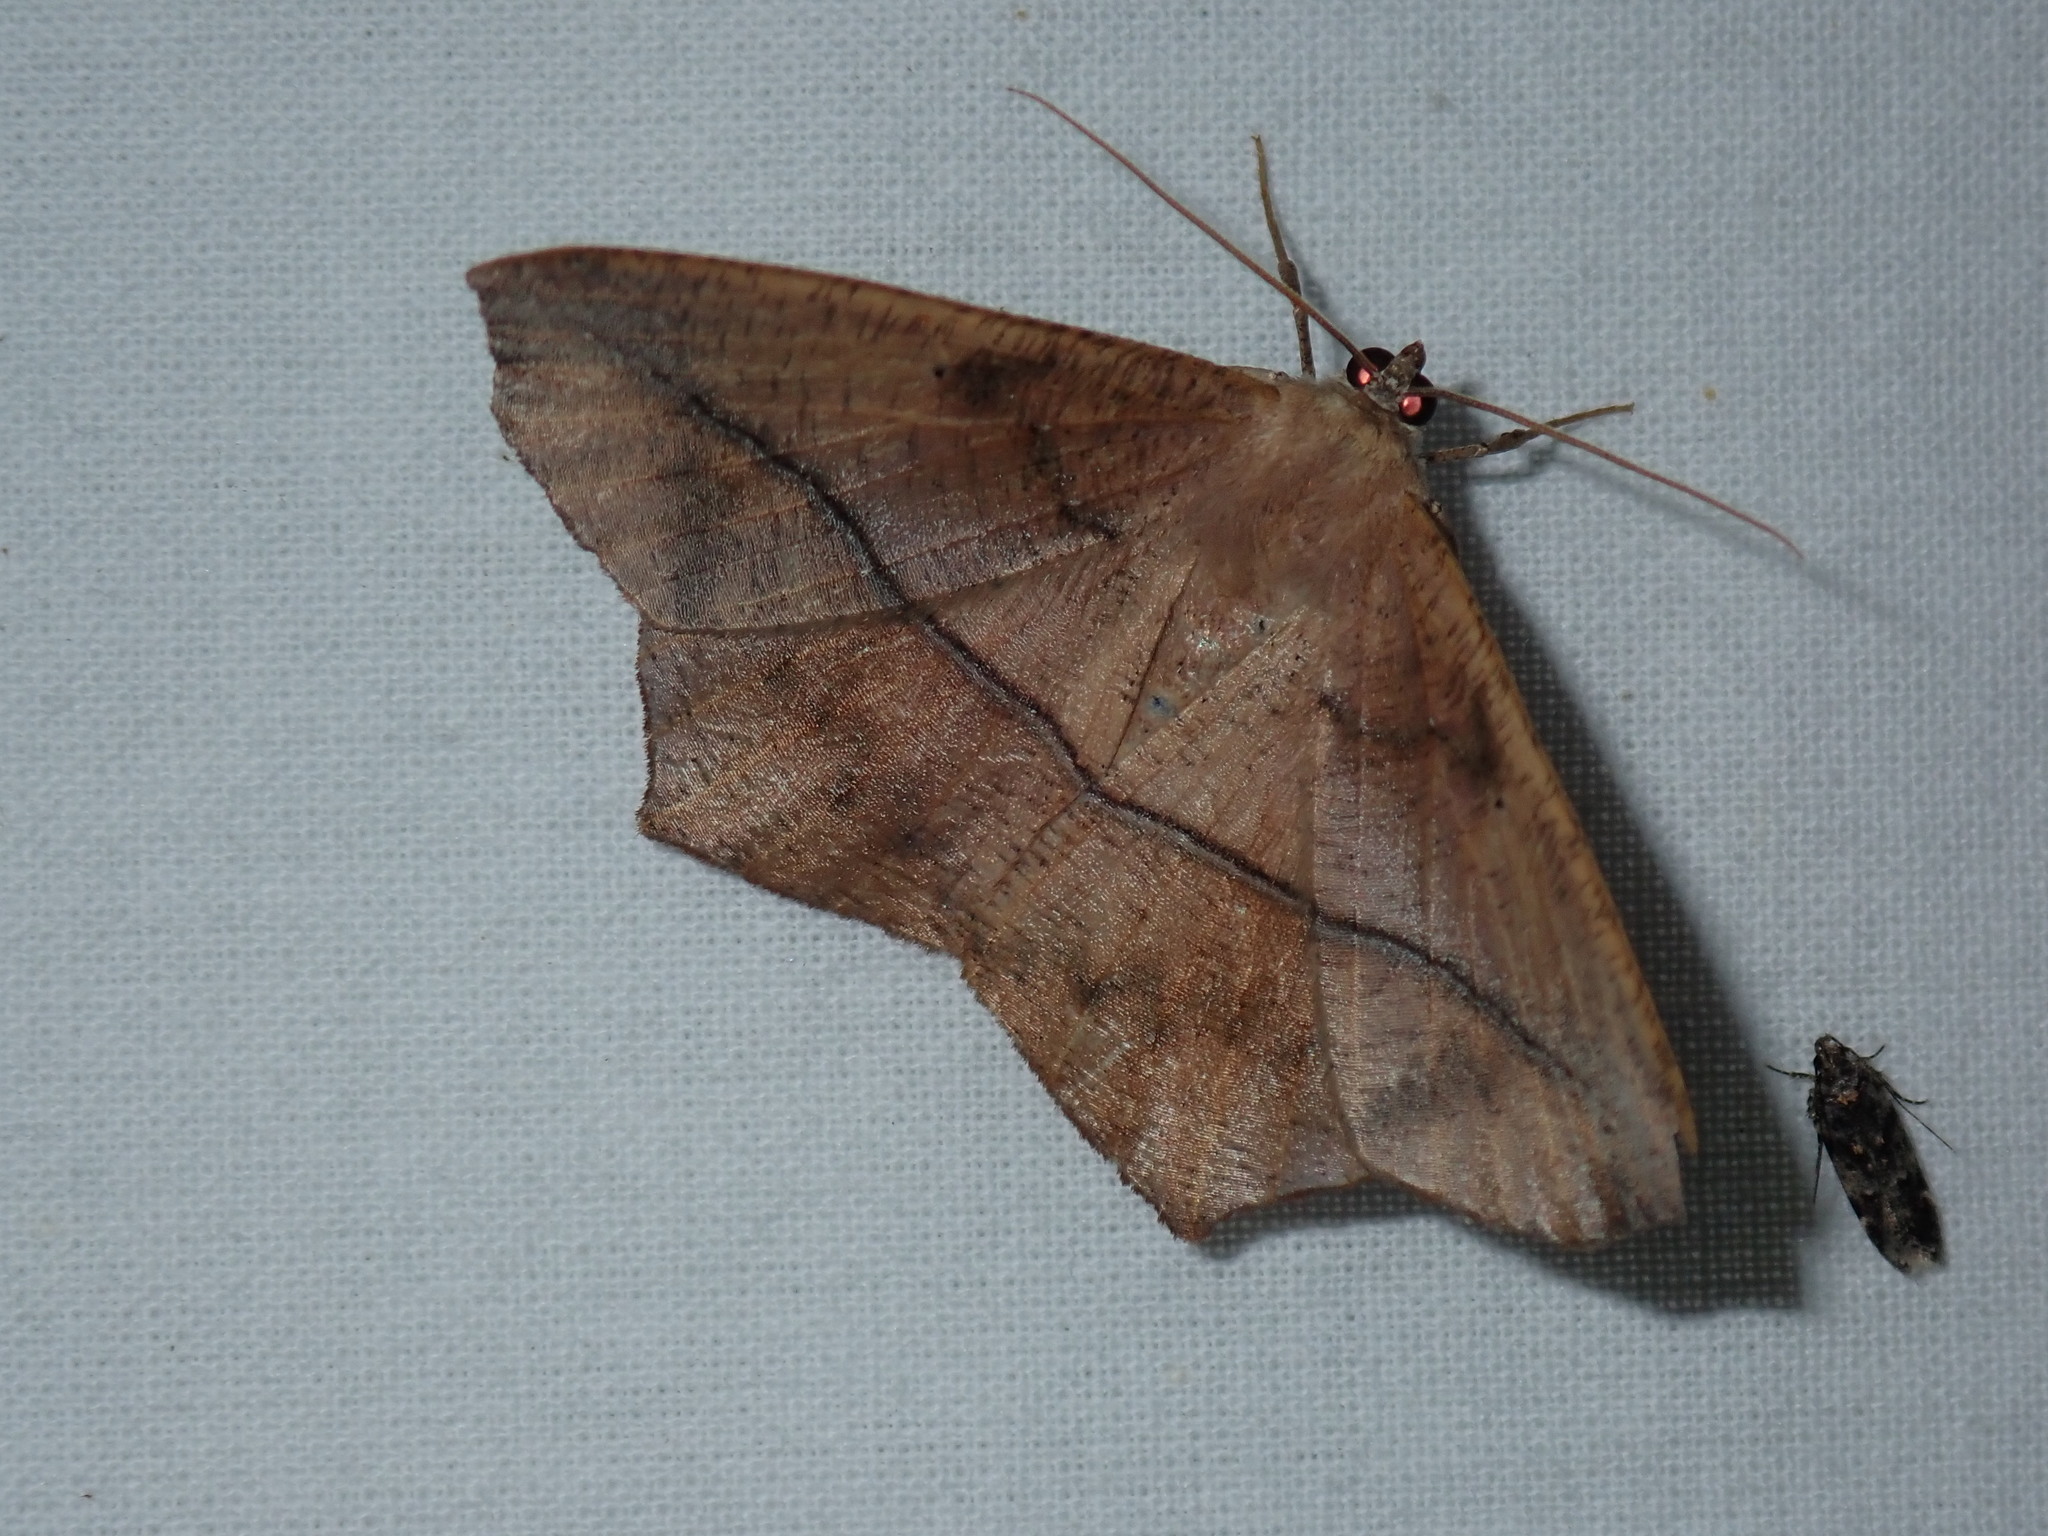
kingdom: Animalia
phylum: Arthropoda
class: Insecta
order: Lepidoptera
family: Geometridae
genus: Prochoerodes
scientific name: Prochoerodes lineola
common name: Large maple spanworm
